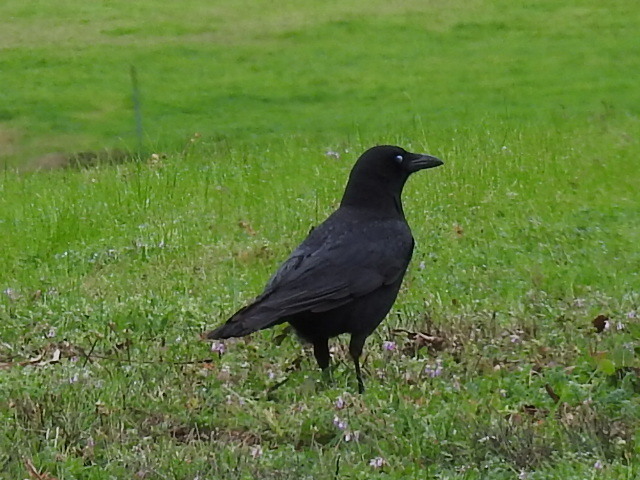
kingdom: Animalia
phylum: Chordata
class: Aves
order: Passeriformes
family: Corvidae
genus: Corvus
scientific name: Corvus brachyrhynchos
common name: American crow
